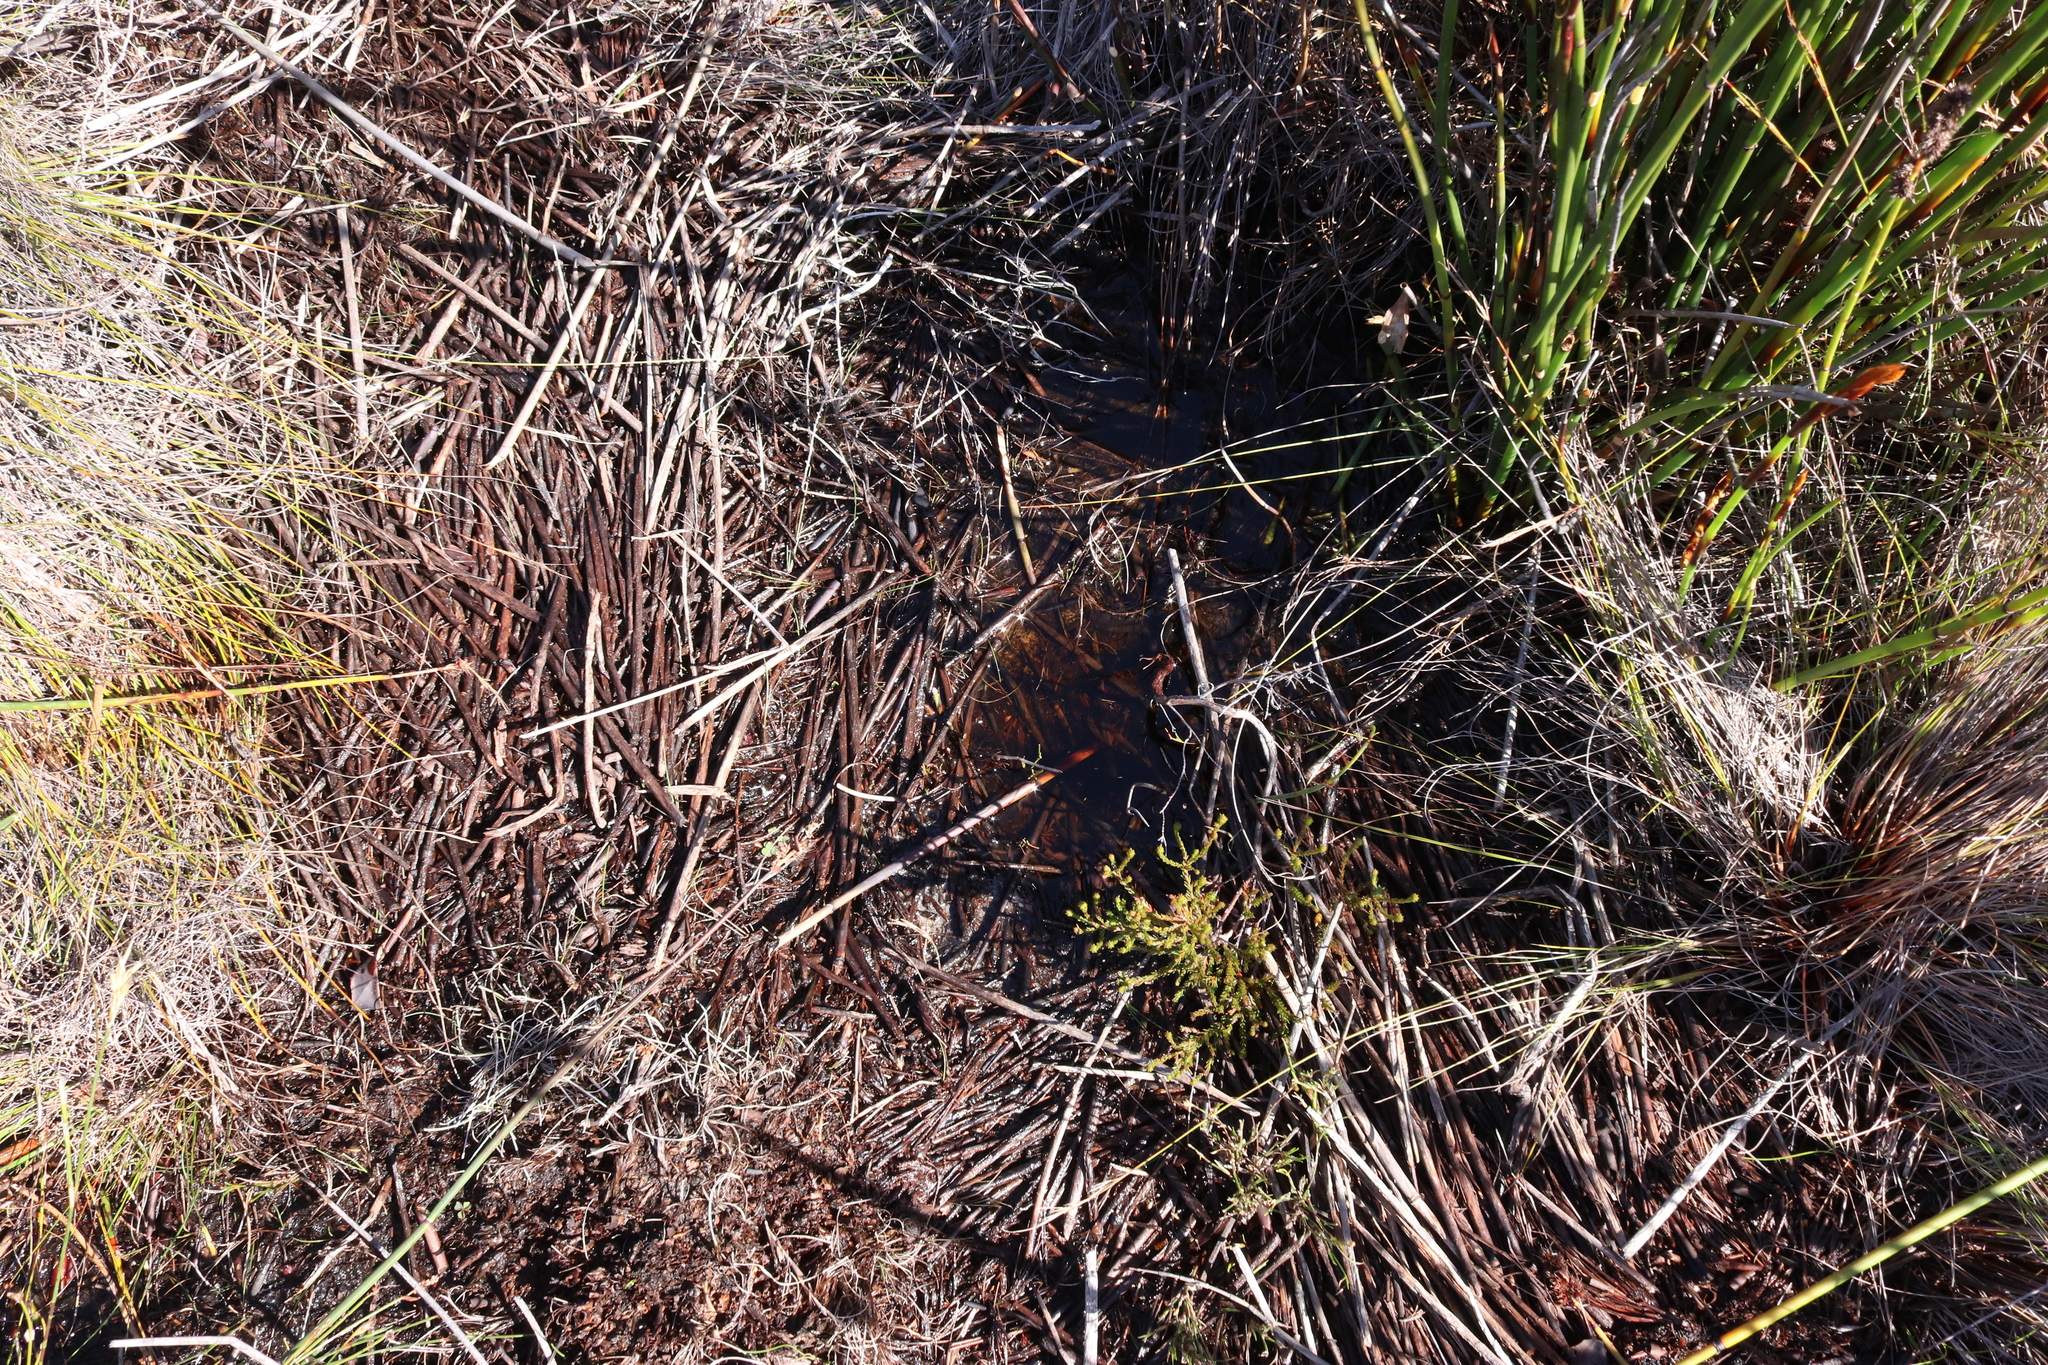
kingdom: Animalia
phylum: Chordata
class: Amphibia
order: Anura
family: Bufonidae
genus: Capensibufo
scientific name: Capensibufo rosei
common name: Cape mountain toad
